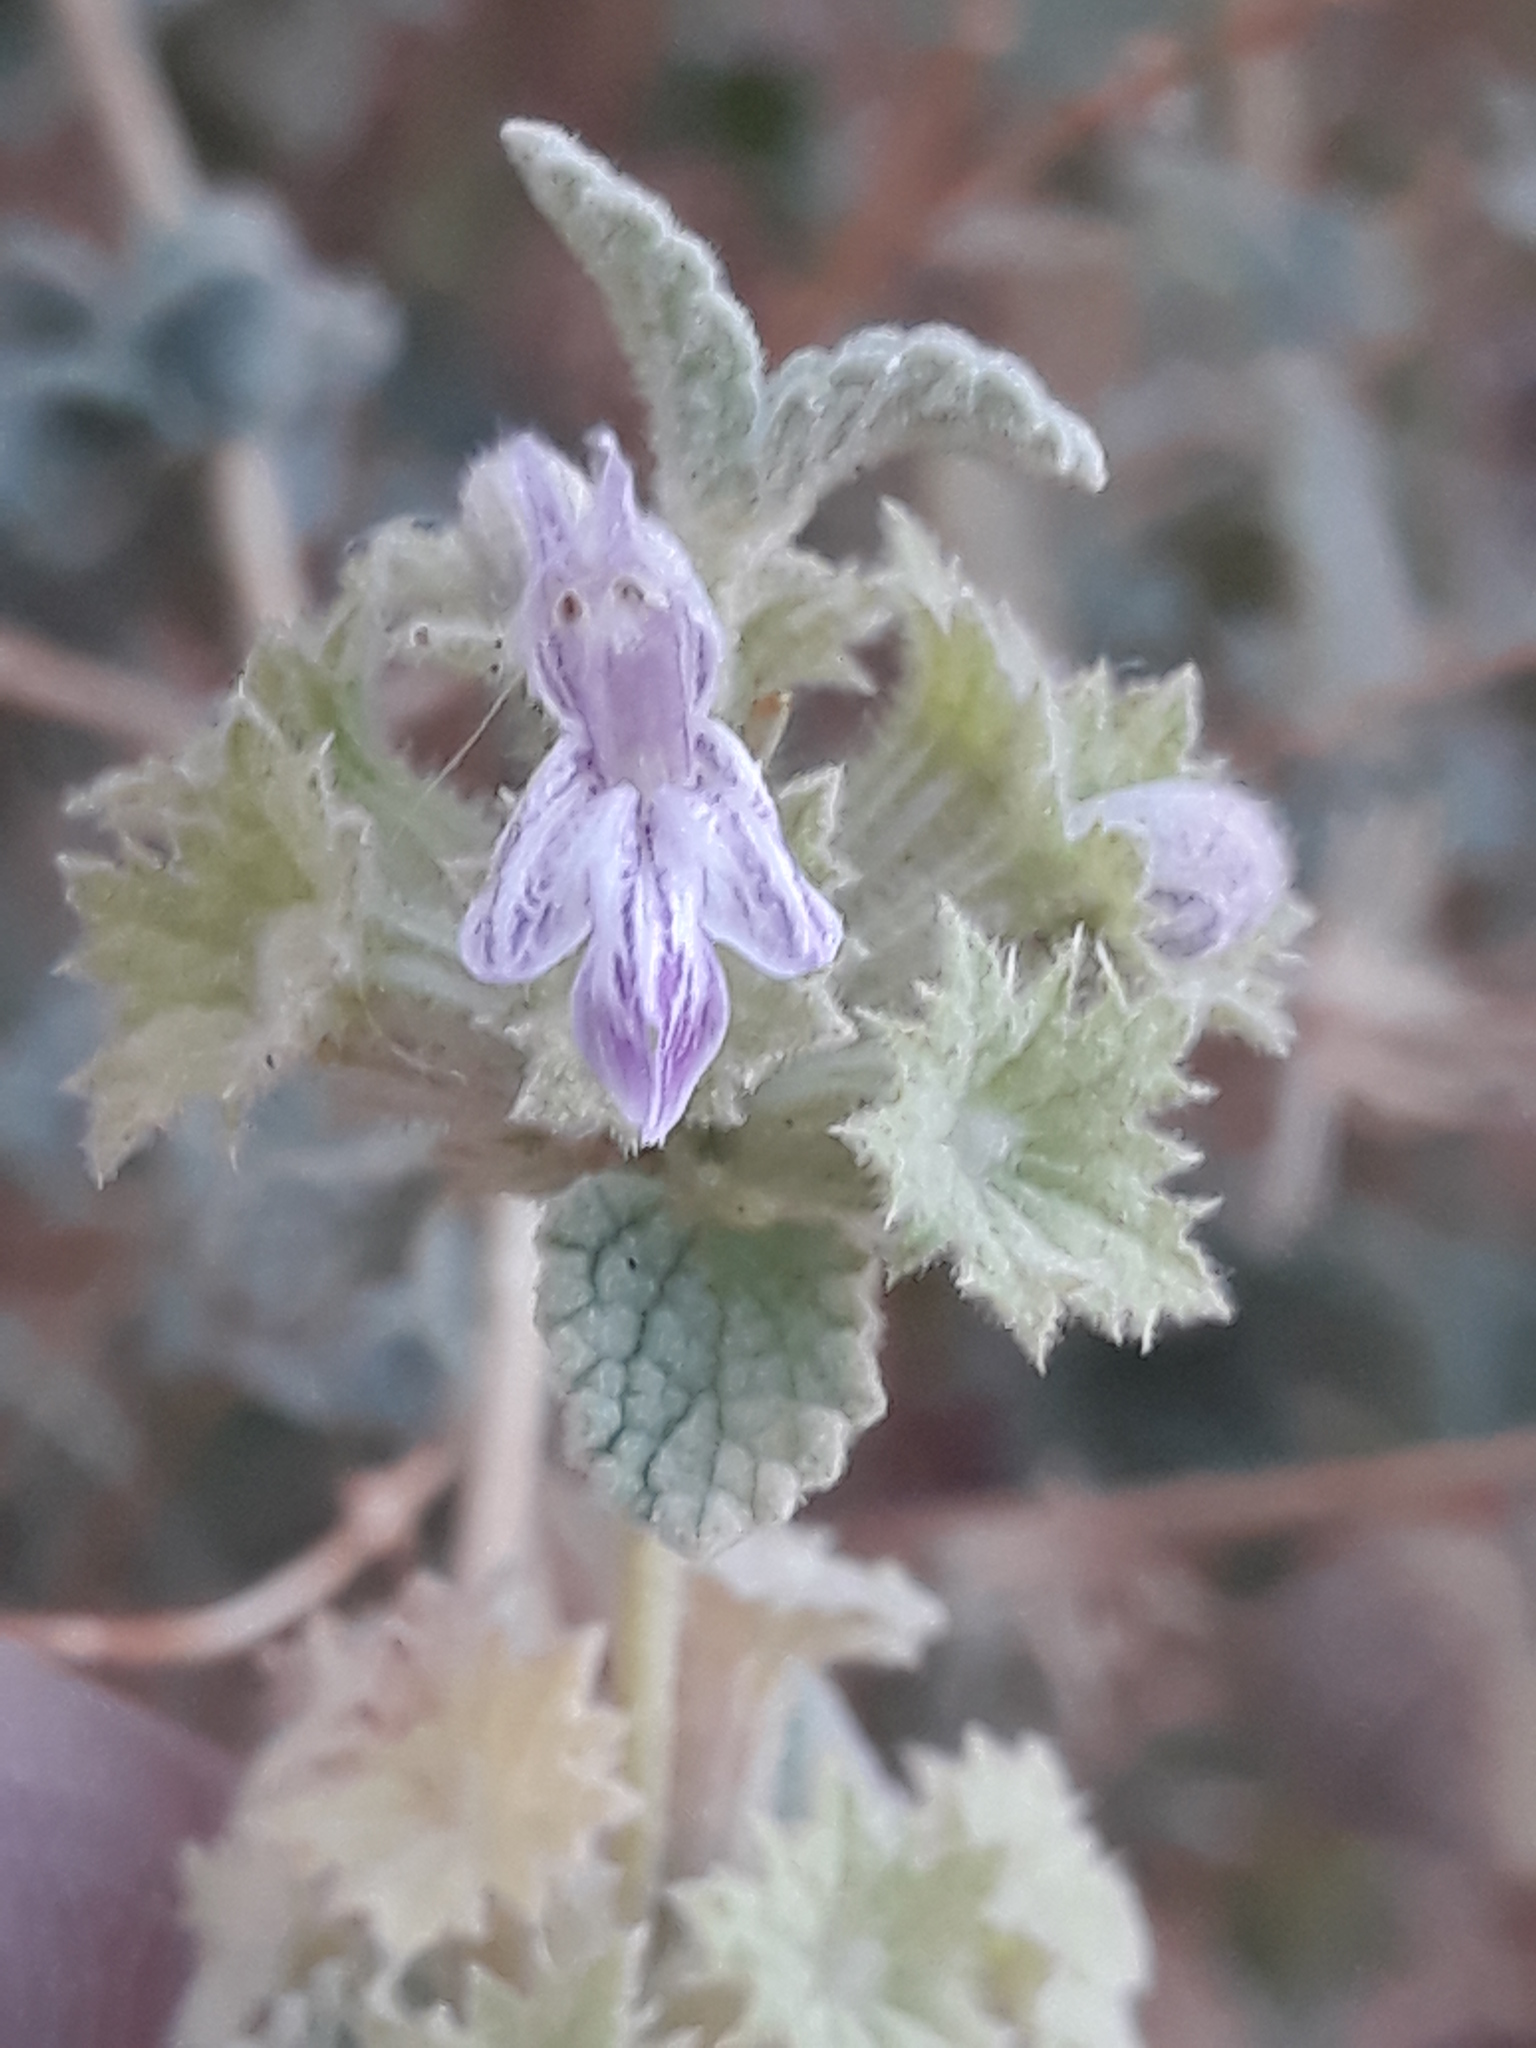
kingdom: Plantae
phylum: Tracheophyta
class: Magnoliopsida
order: Lamiales
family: Lamiaceae
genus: Pseudodictamnus
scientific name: Pseudodictamnus hirsutus
